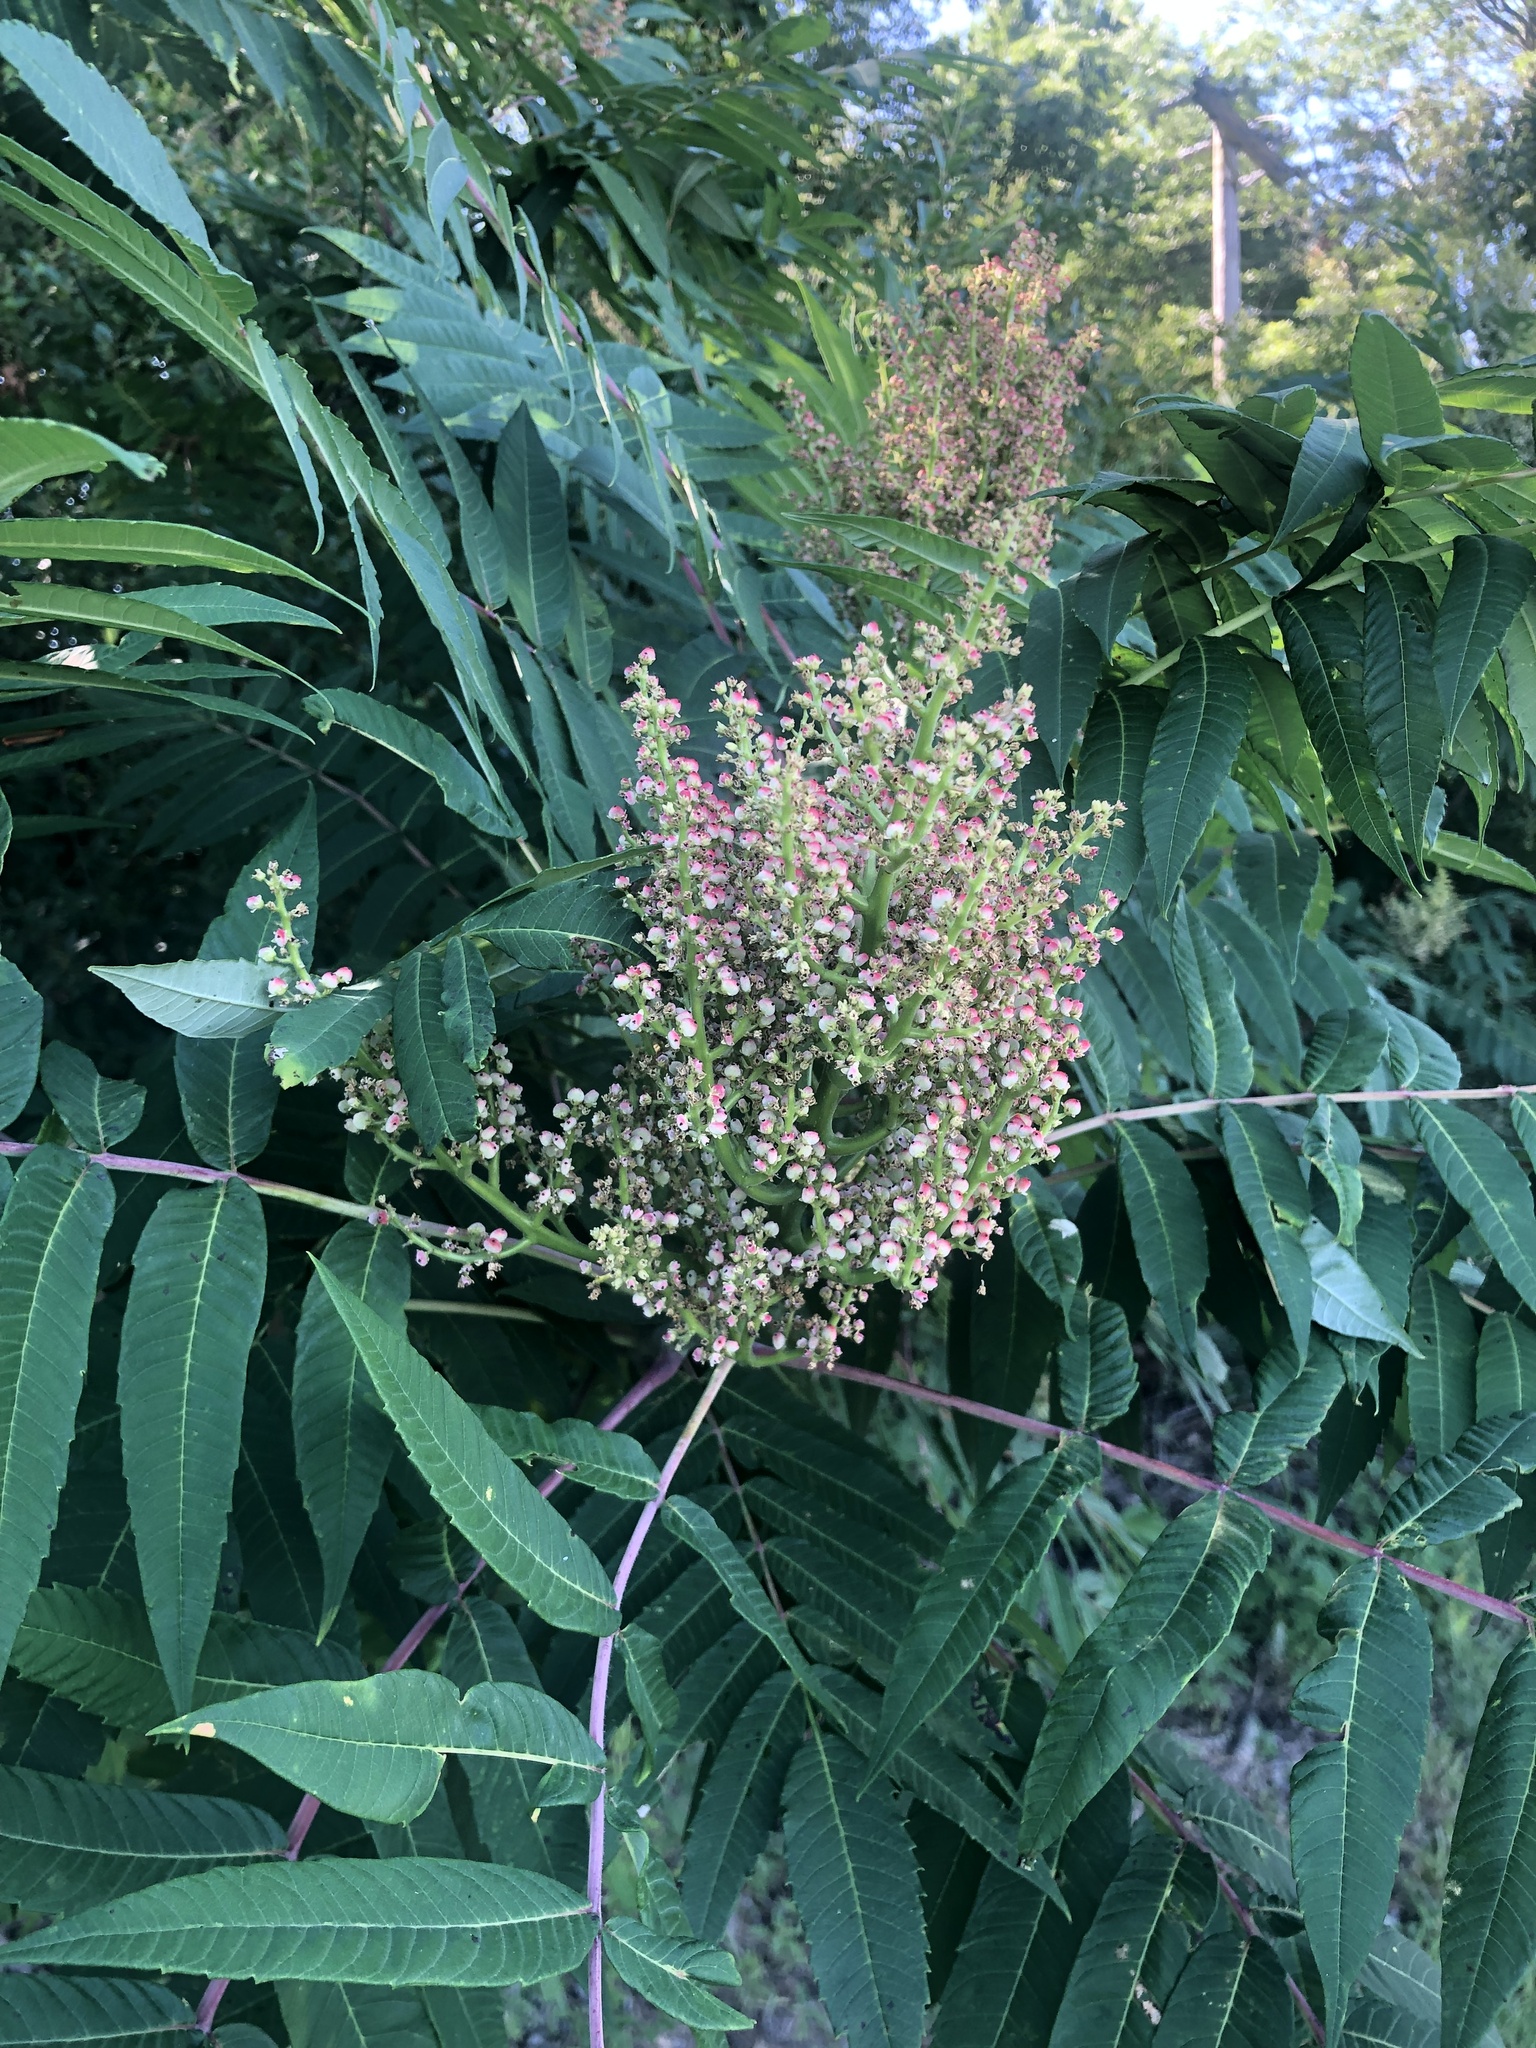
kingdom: Plantae
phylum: Tracheophyta
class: Magnoliopsida
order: Sapindales
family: Anacardiaceae
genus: Rhus
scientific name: Rhus glabra
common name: Scarlet sumac
